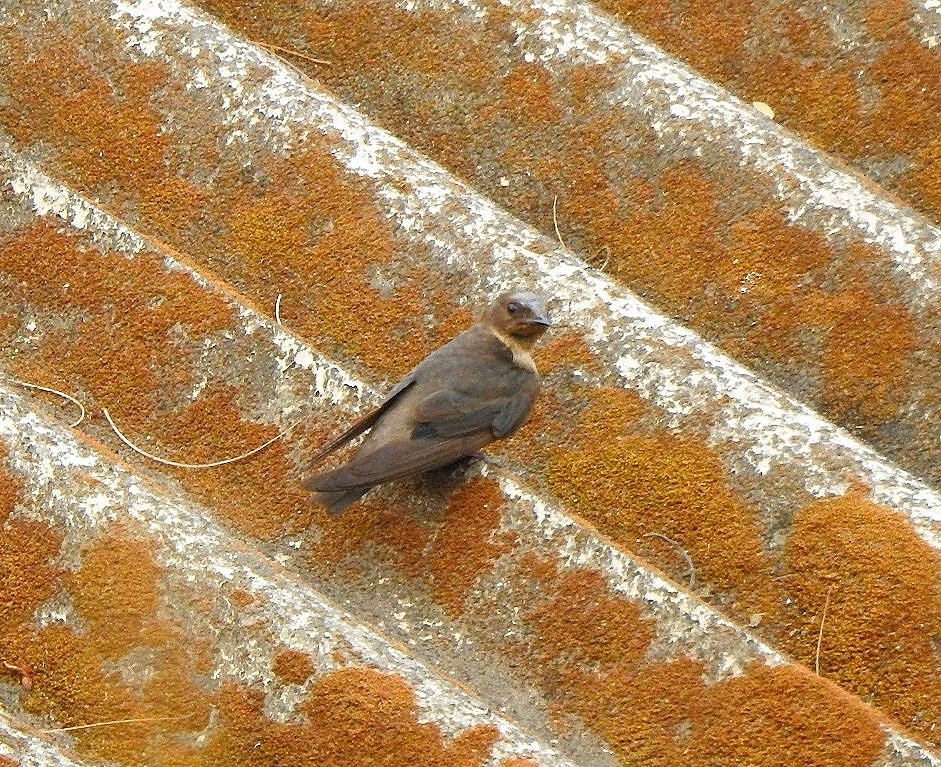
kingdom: Animalia
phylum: Chordata
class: Aves
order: Passeriformes
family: Hirundinidae
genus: Ptyonoprogne
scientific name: Ptyonoprogne concolor
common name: Dusky crag-martin
